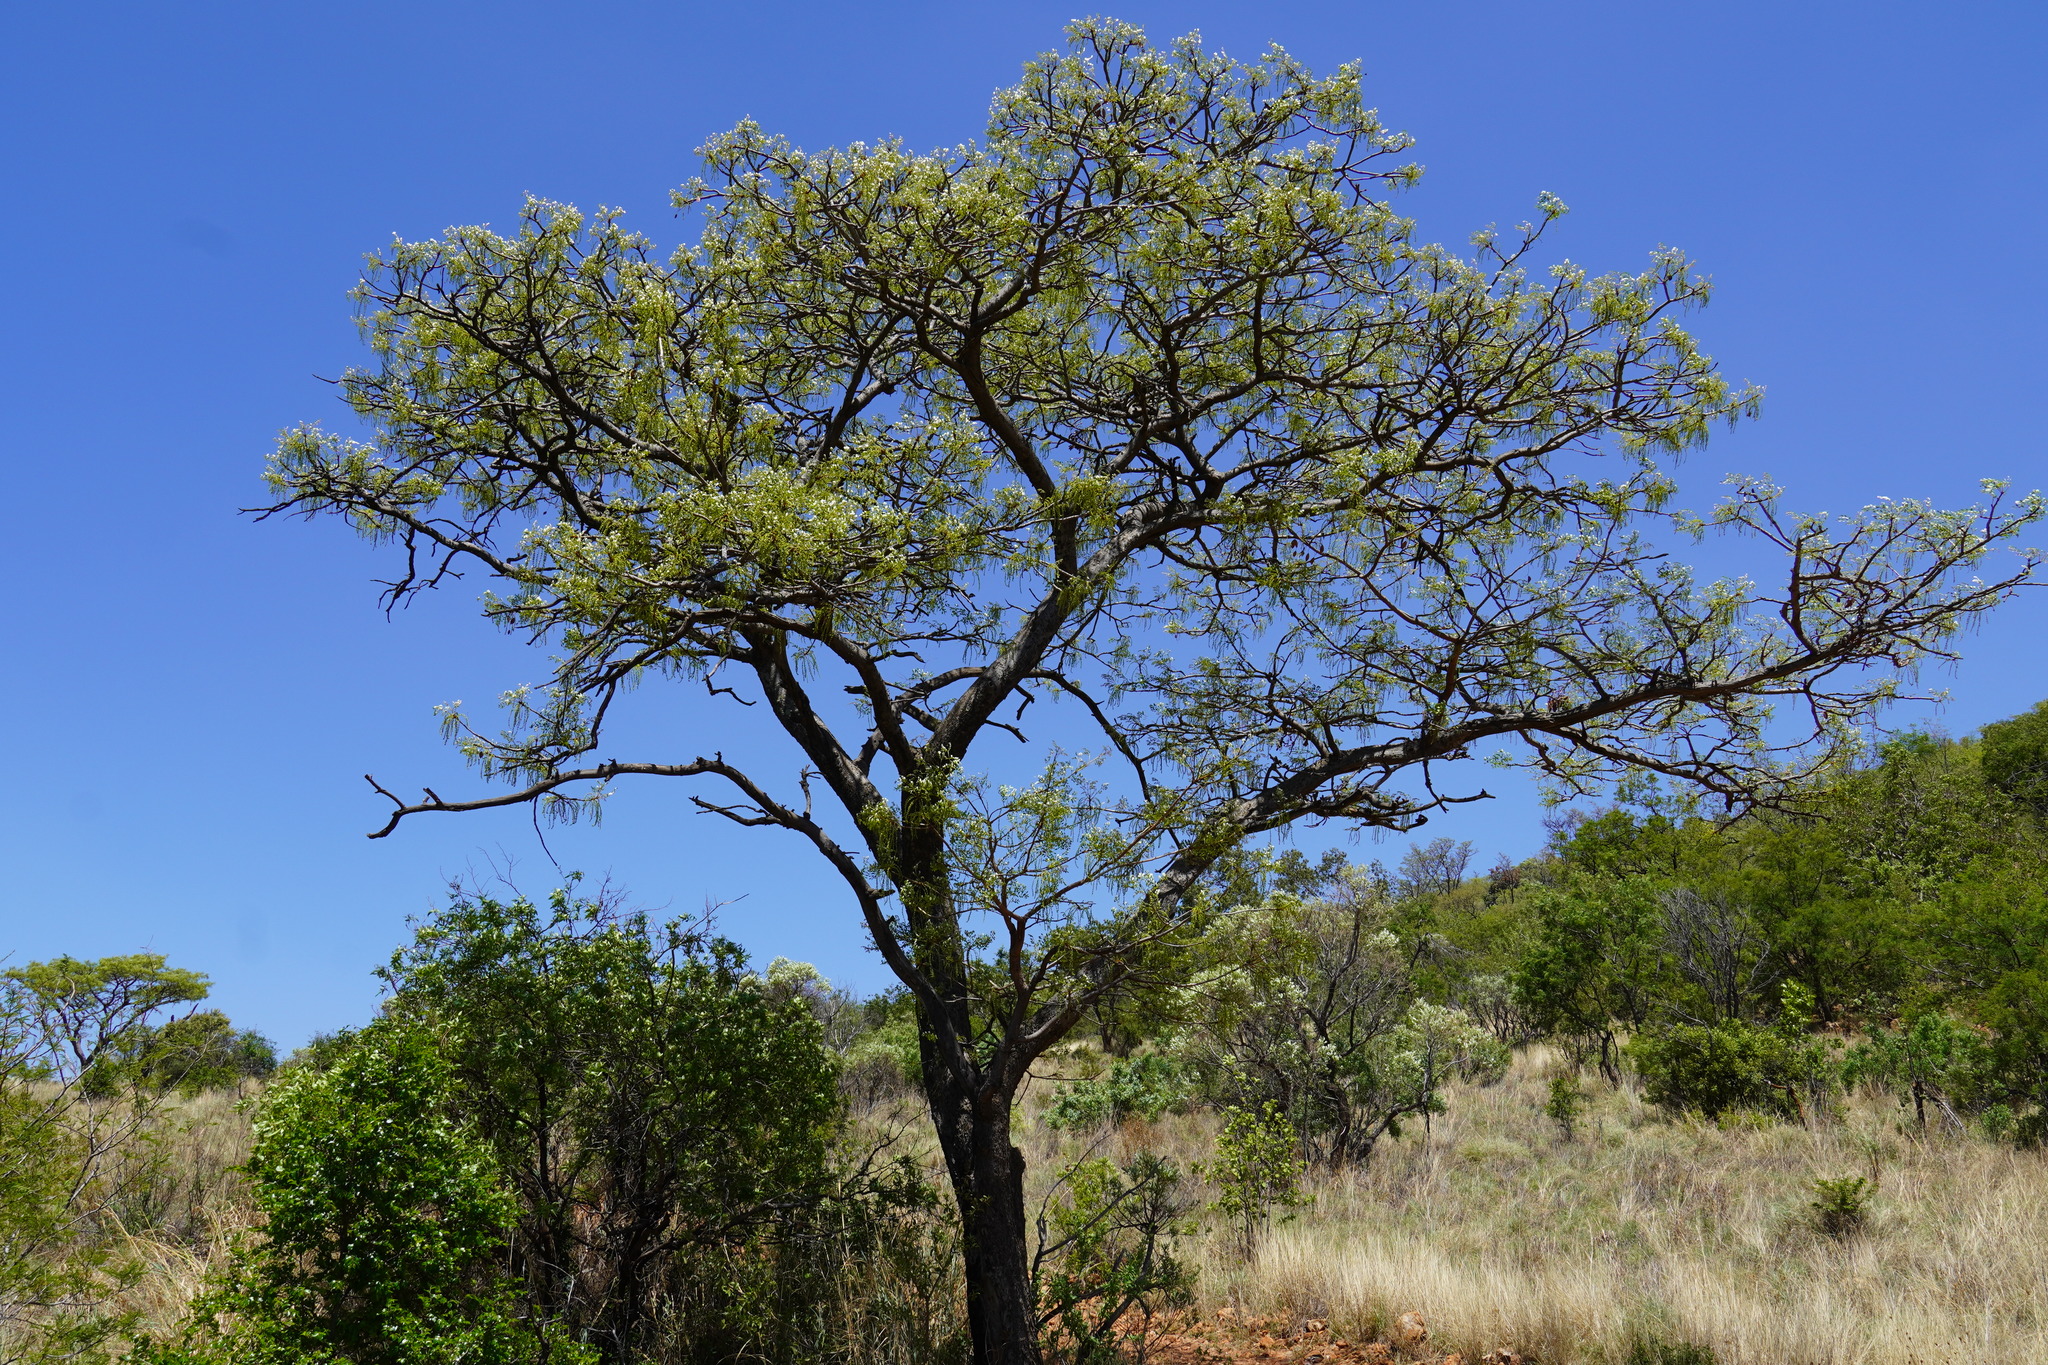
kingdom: Plantae
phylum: Tracheophyta
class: Magnoliopsida
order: Fabales
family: Fabaceae
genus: Burkea
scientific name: Burkea africana
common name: Mkalati tree
